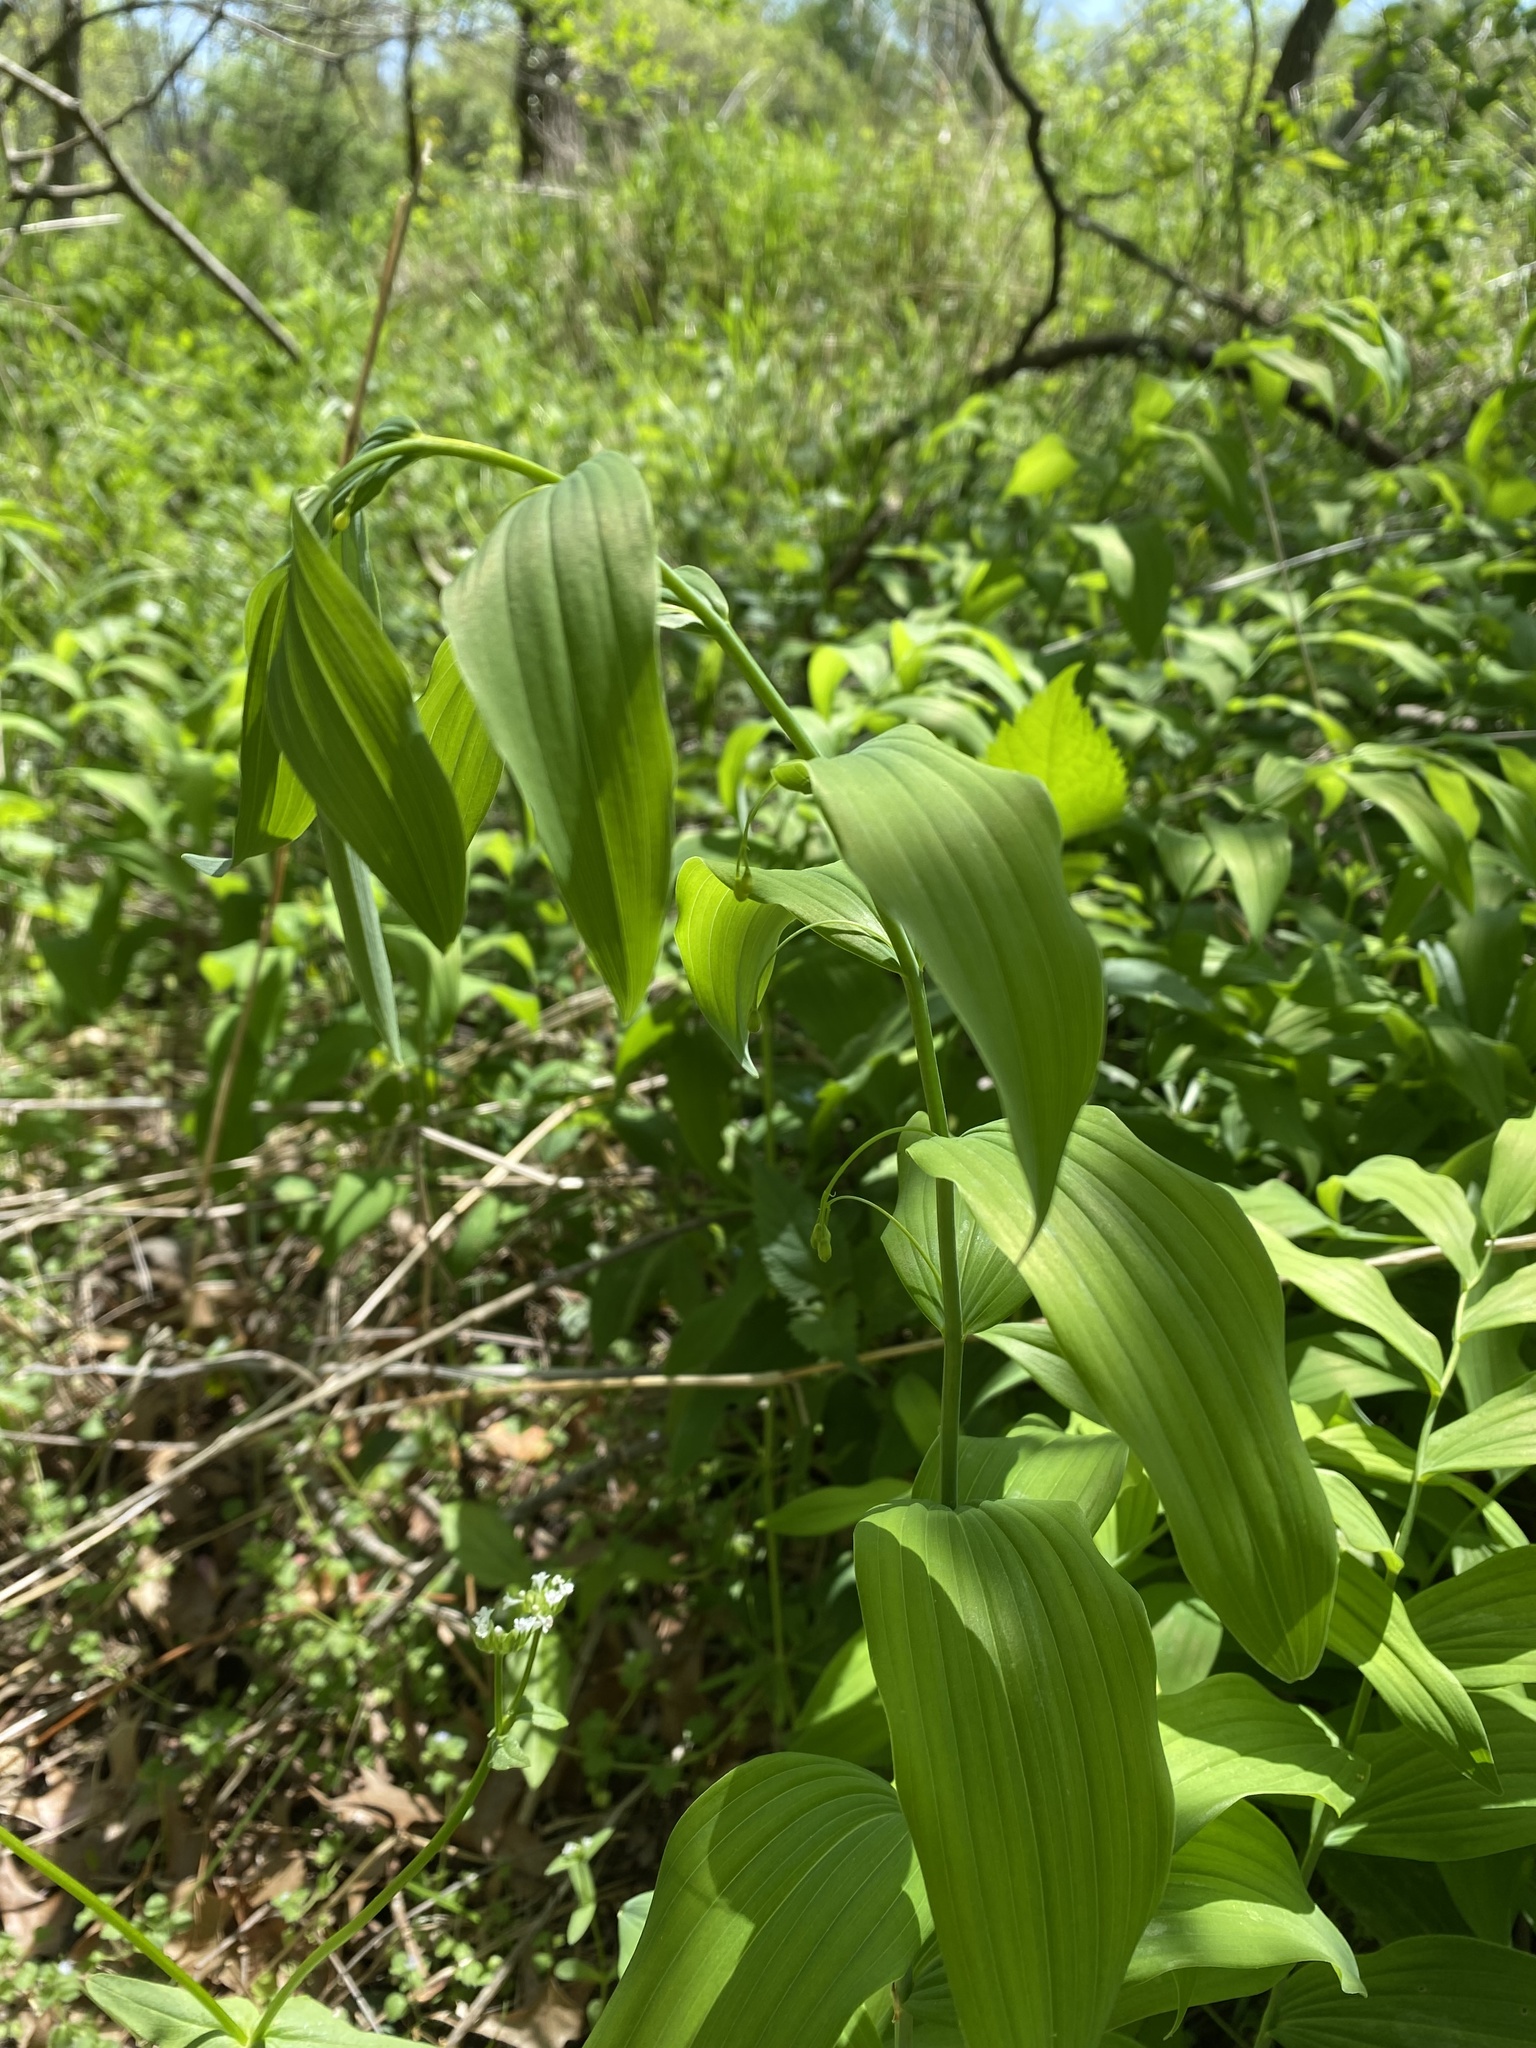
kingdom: Plantae
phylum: Tracheophyta
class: Liliopsida
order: Asparagales
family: Asparagaceae
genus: Polygonatum
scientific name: Polygonatum biflorum
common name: American solomon's-seal
